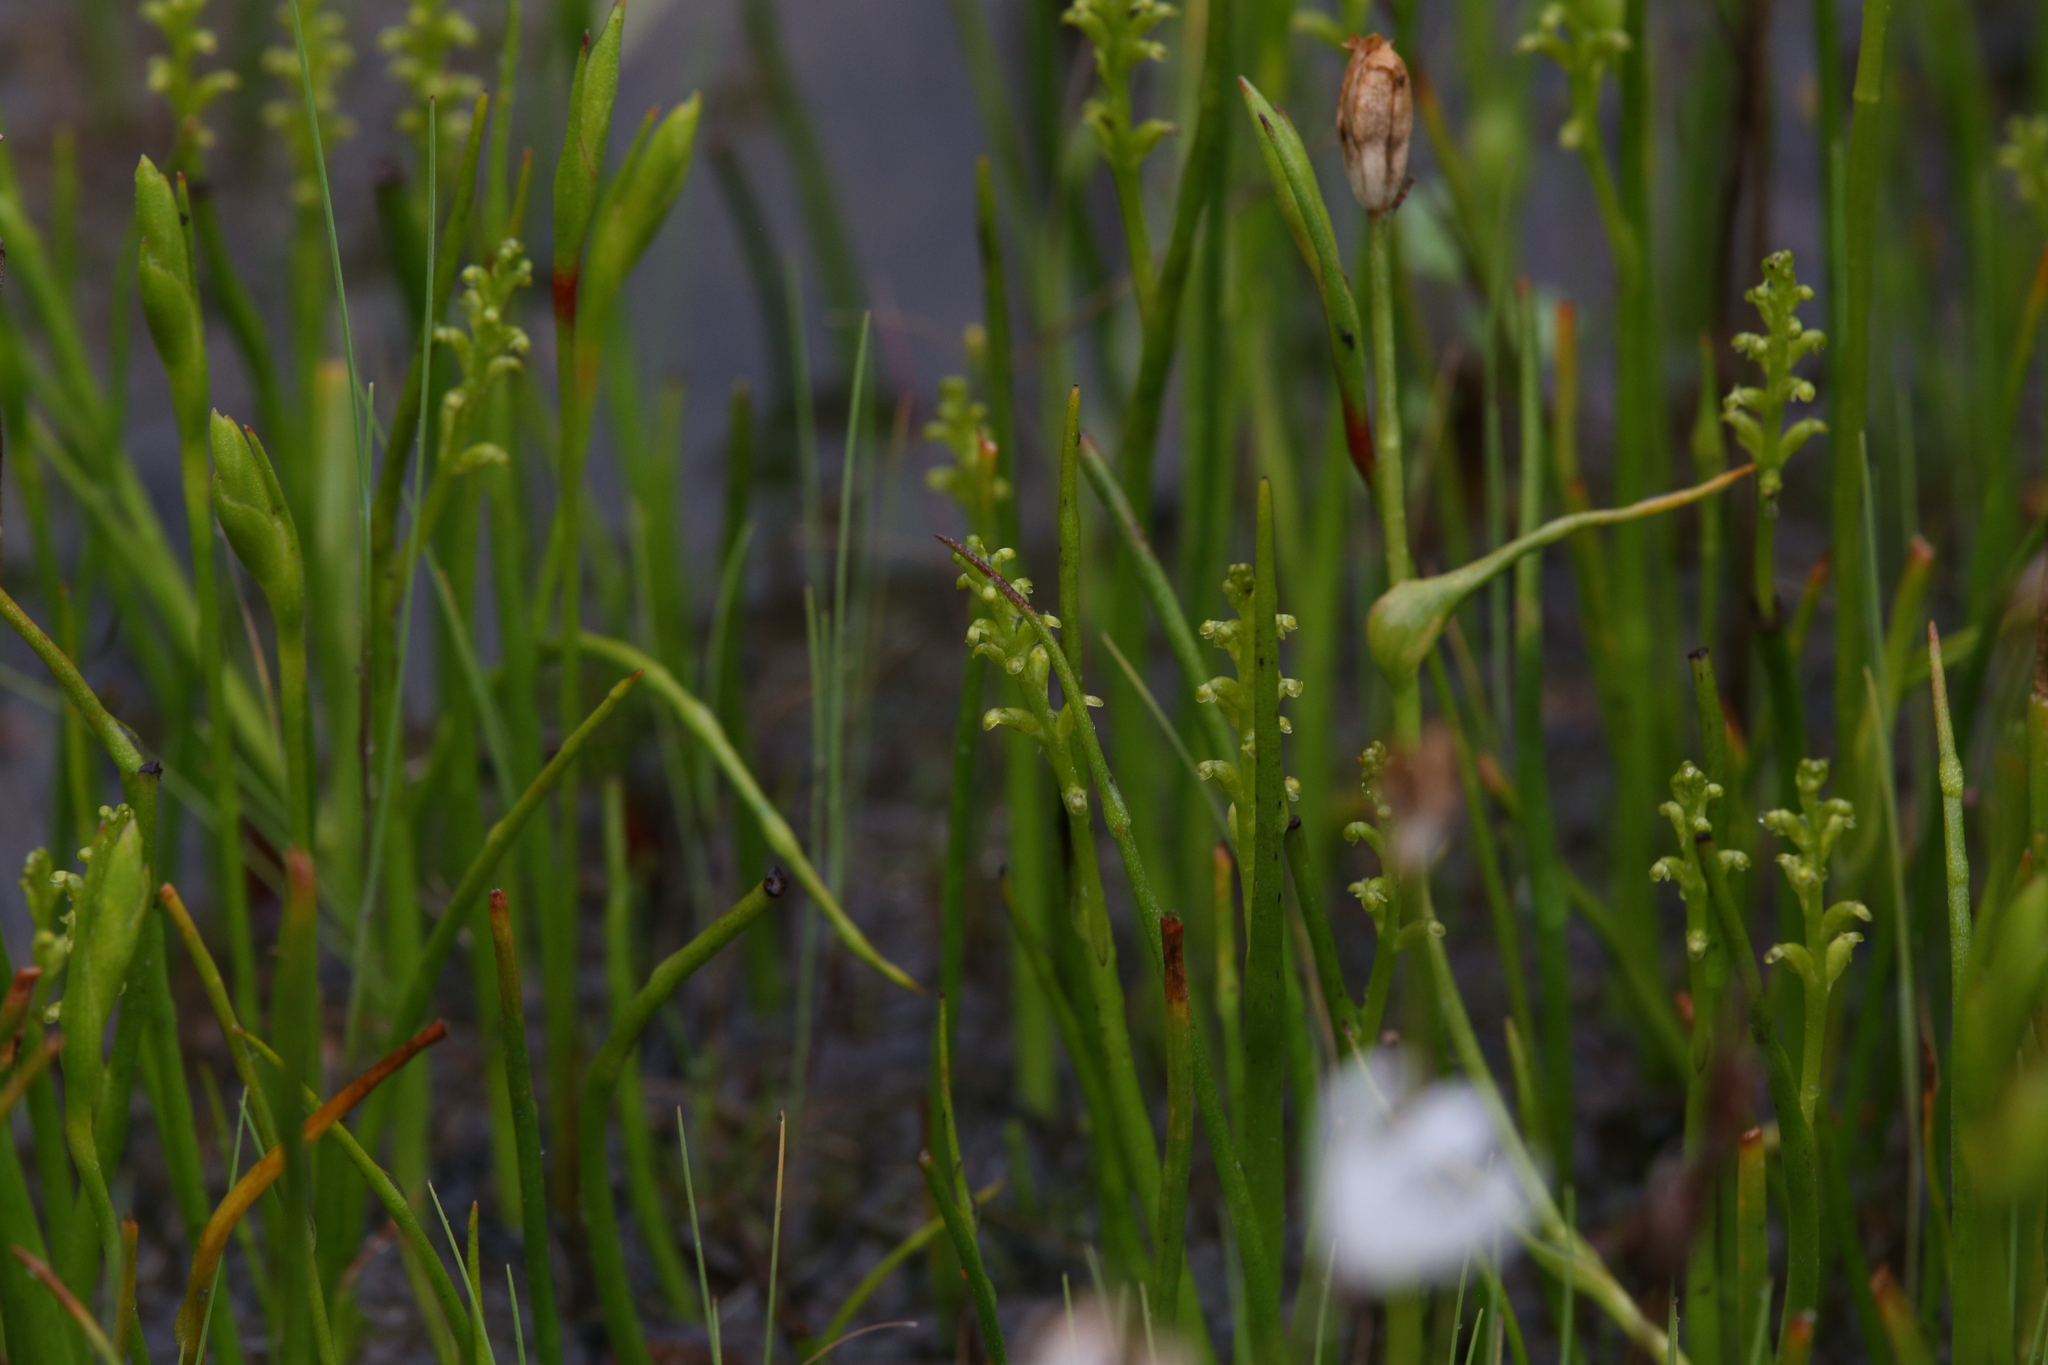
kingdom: Plantae
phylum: Tracheophyta
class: Liliopsida
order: Asparagales
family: Orchidaceae
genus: Microtis
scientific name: Microtis atrata
